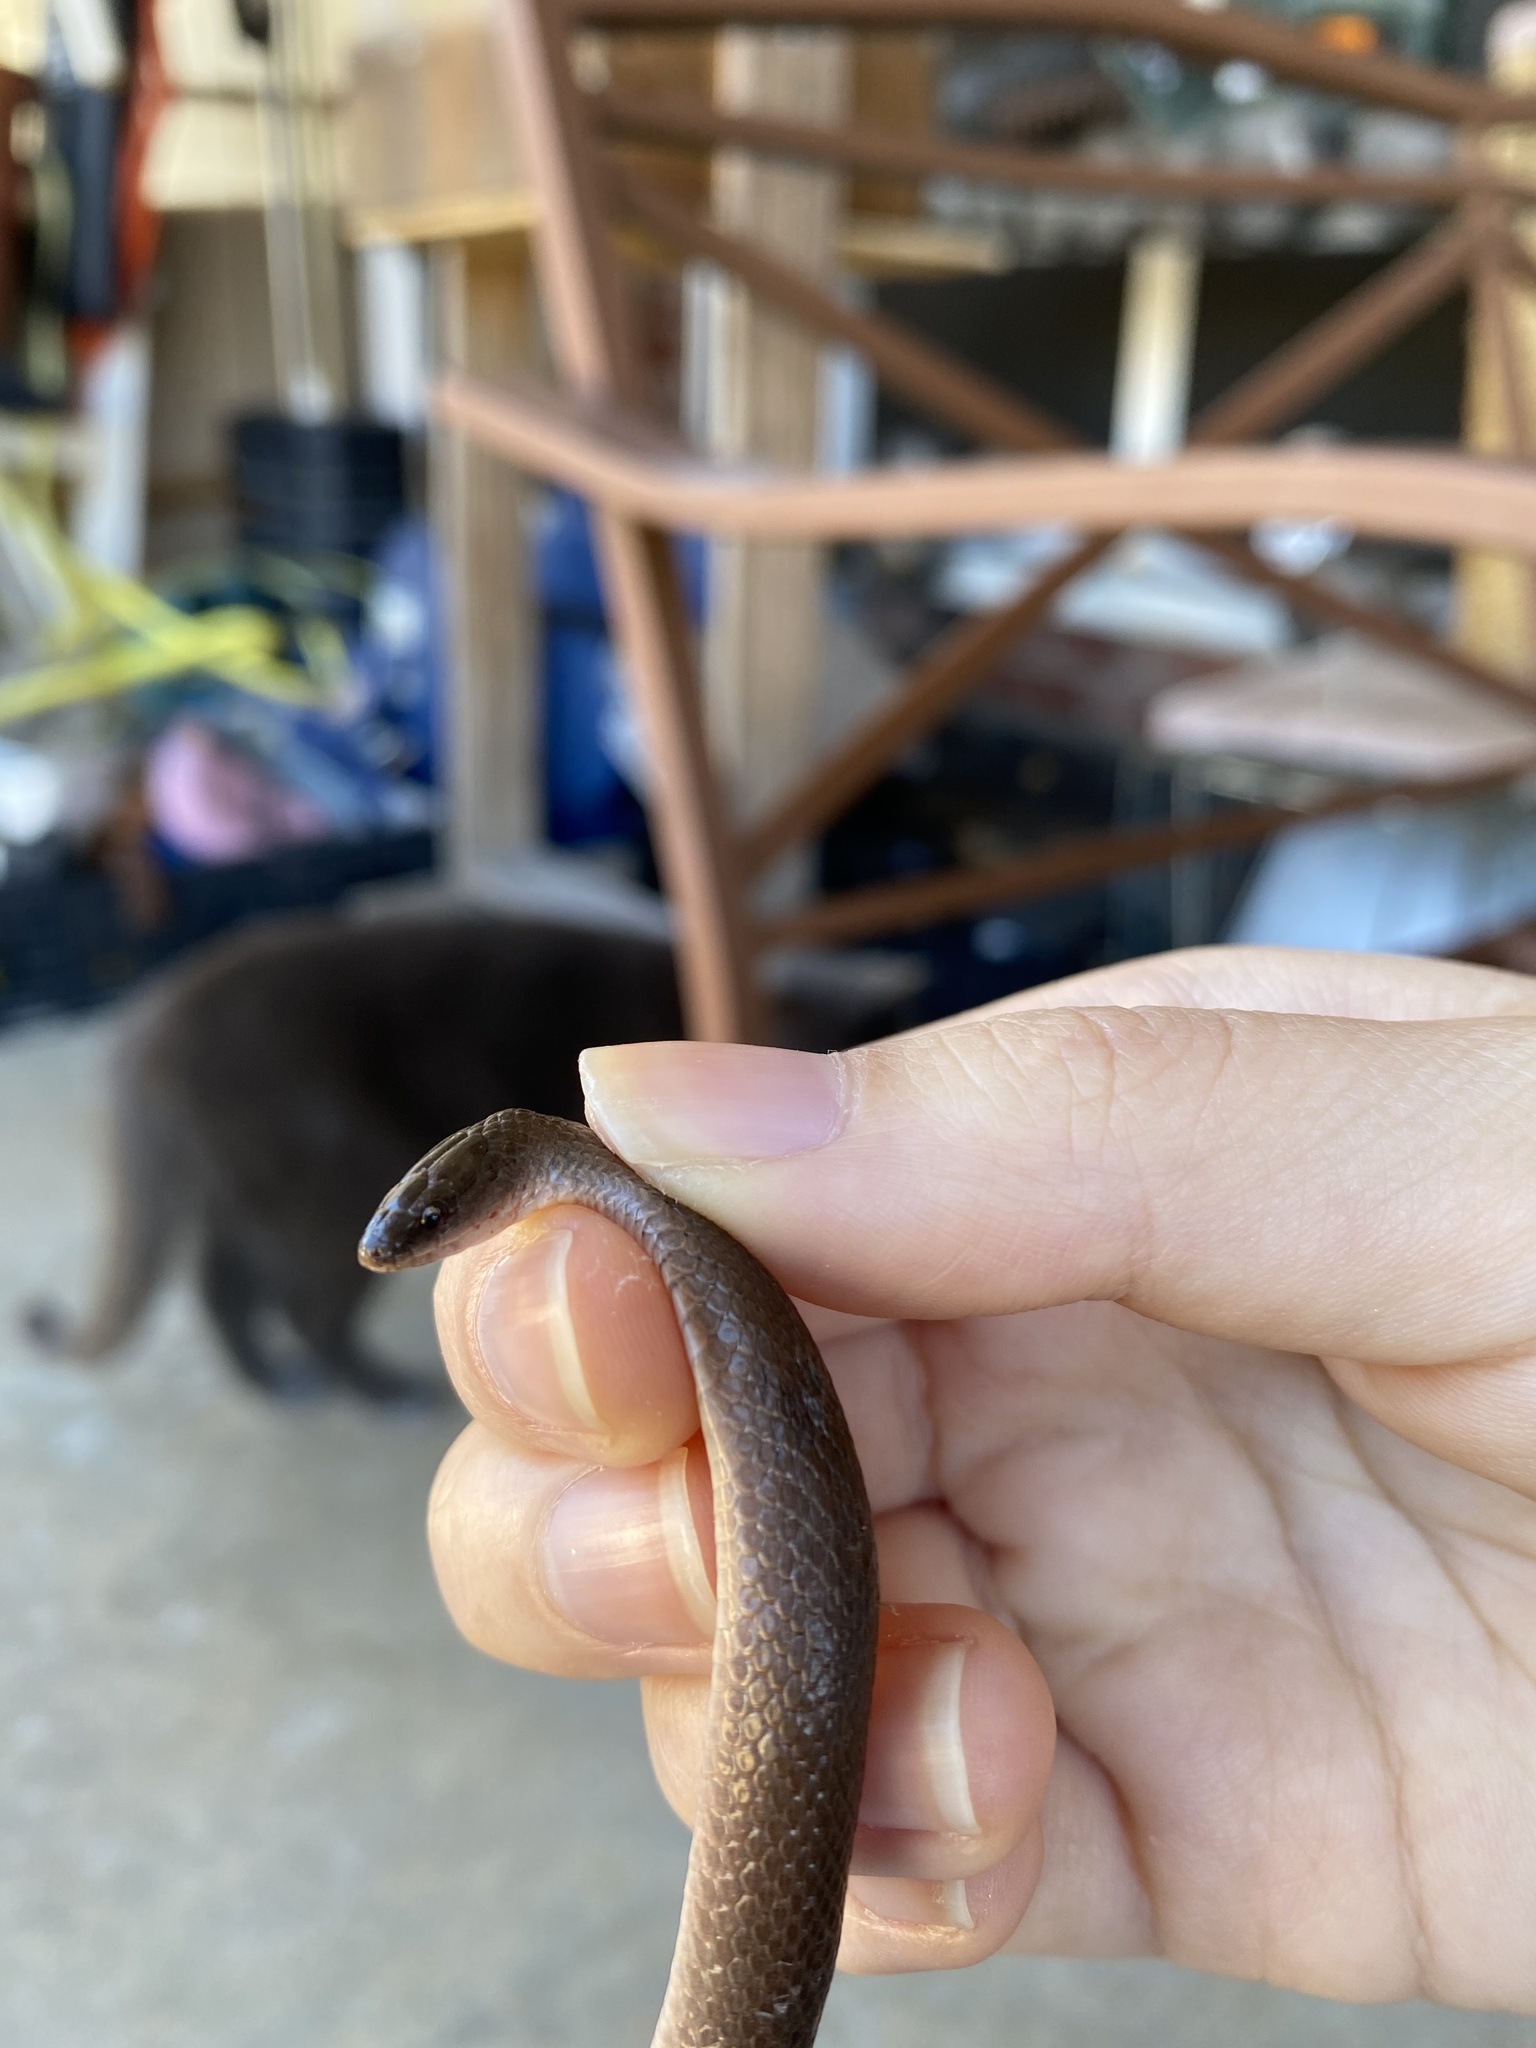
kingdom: Animalia
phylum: Chordata
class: Squamata
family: Colubridae
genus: Haldea
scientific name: Haldea striatula
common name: Rough earth snake
